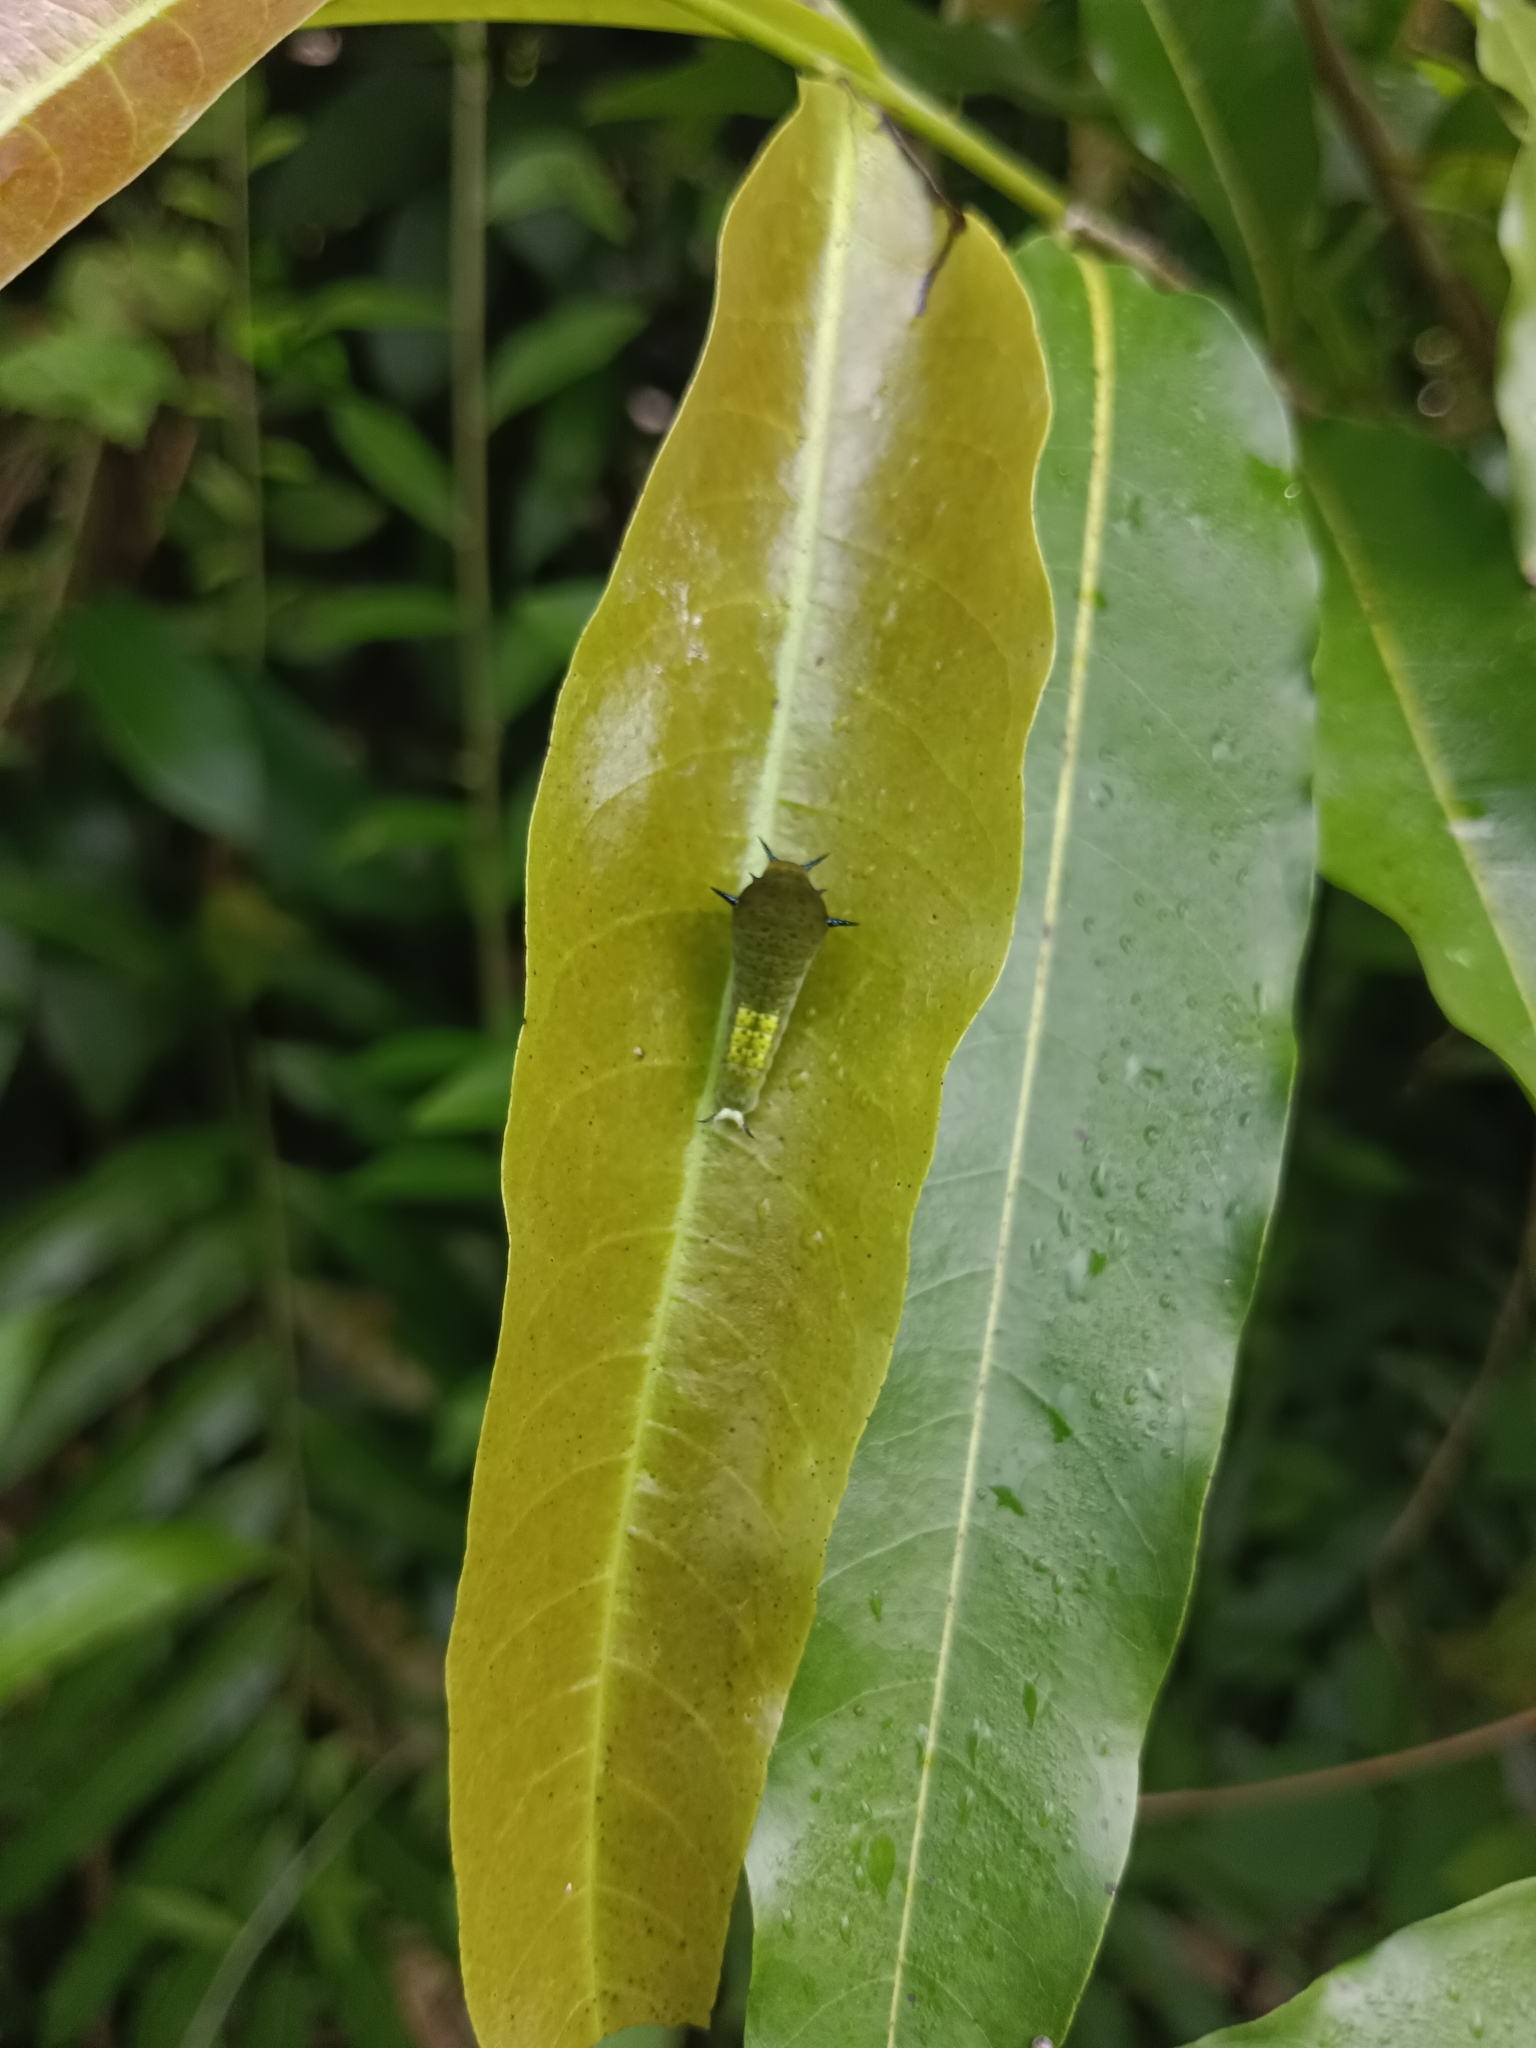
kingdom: Animalia
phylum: Arthropoda
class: Insecta
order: Lepidoptera
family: Papilionidae
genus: Graphium
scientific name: Graphium agamemnon
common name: Tailed jay
